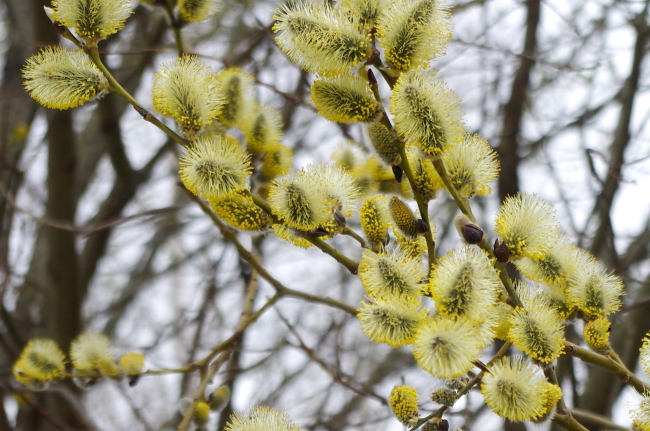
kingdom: Plantae
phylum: Tracheophyta
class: Magnoliopsida
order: Malpighiales
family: Salicaceae
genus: Salix
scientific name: Salix caprea
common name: Goat willow
